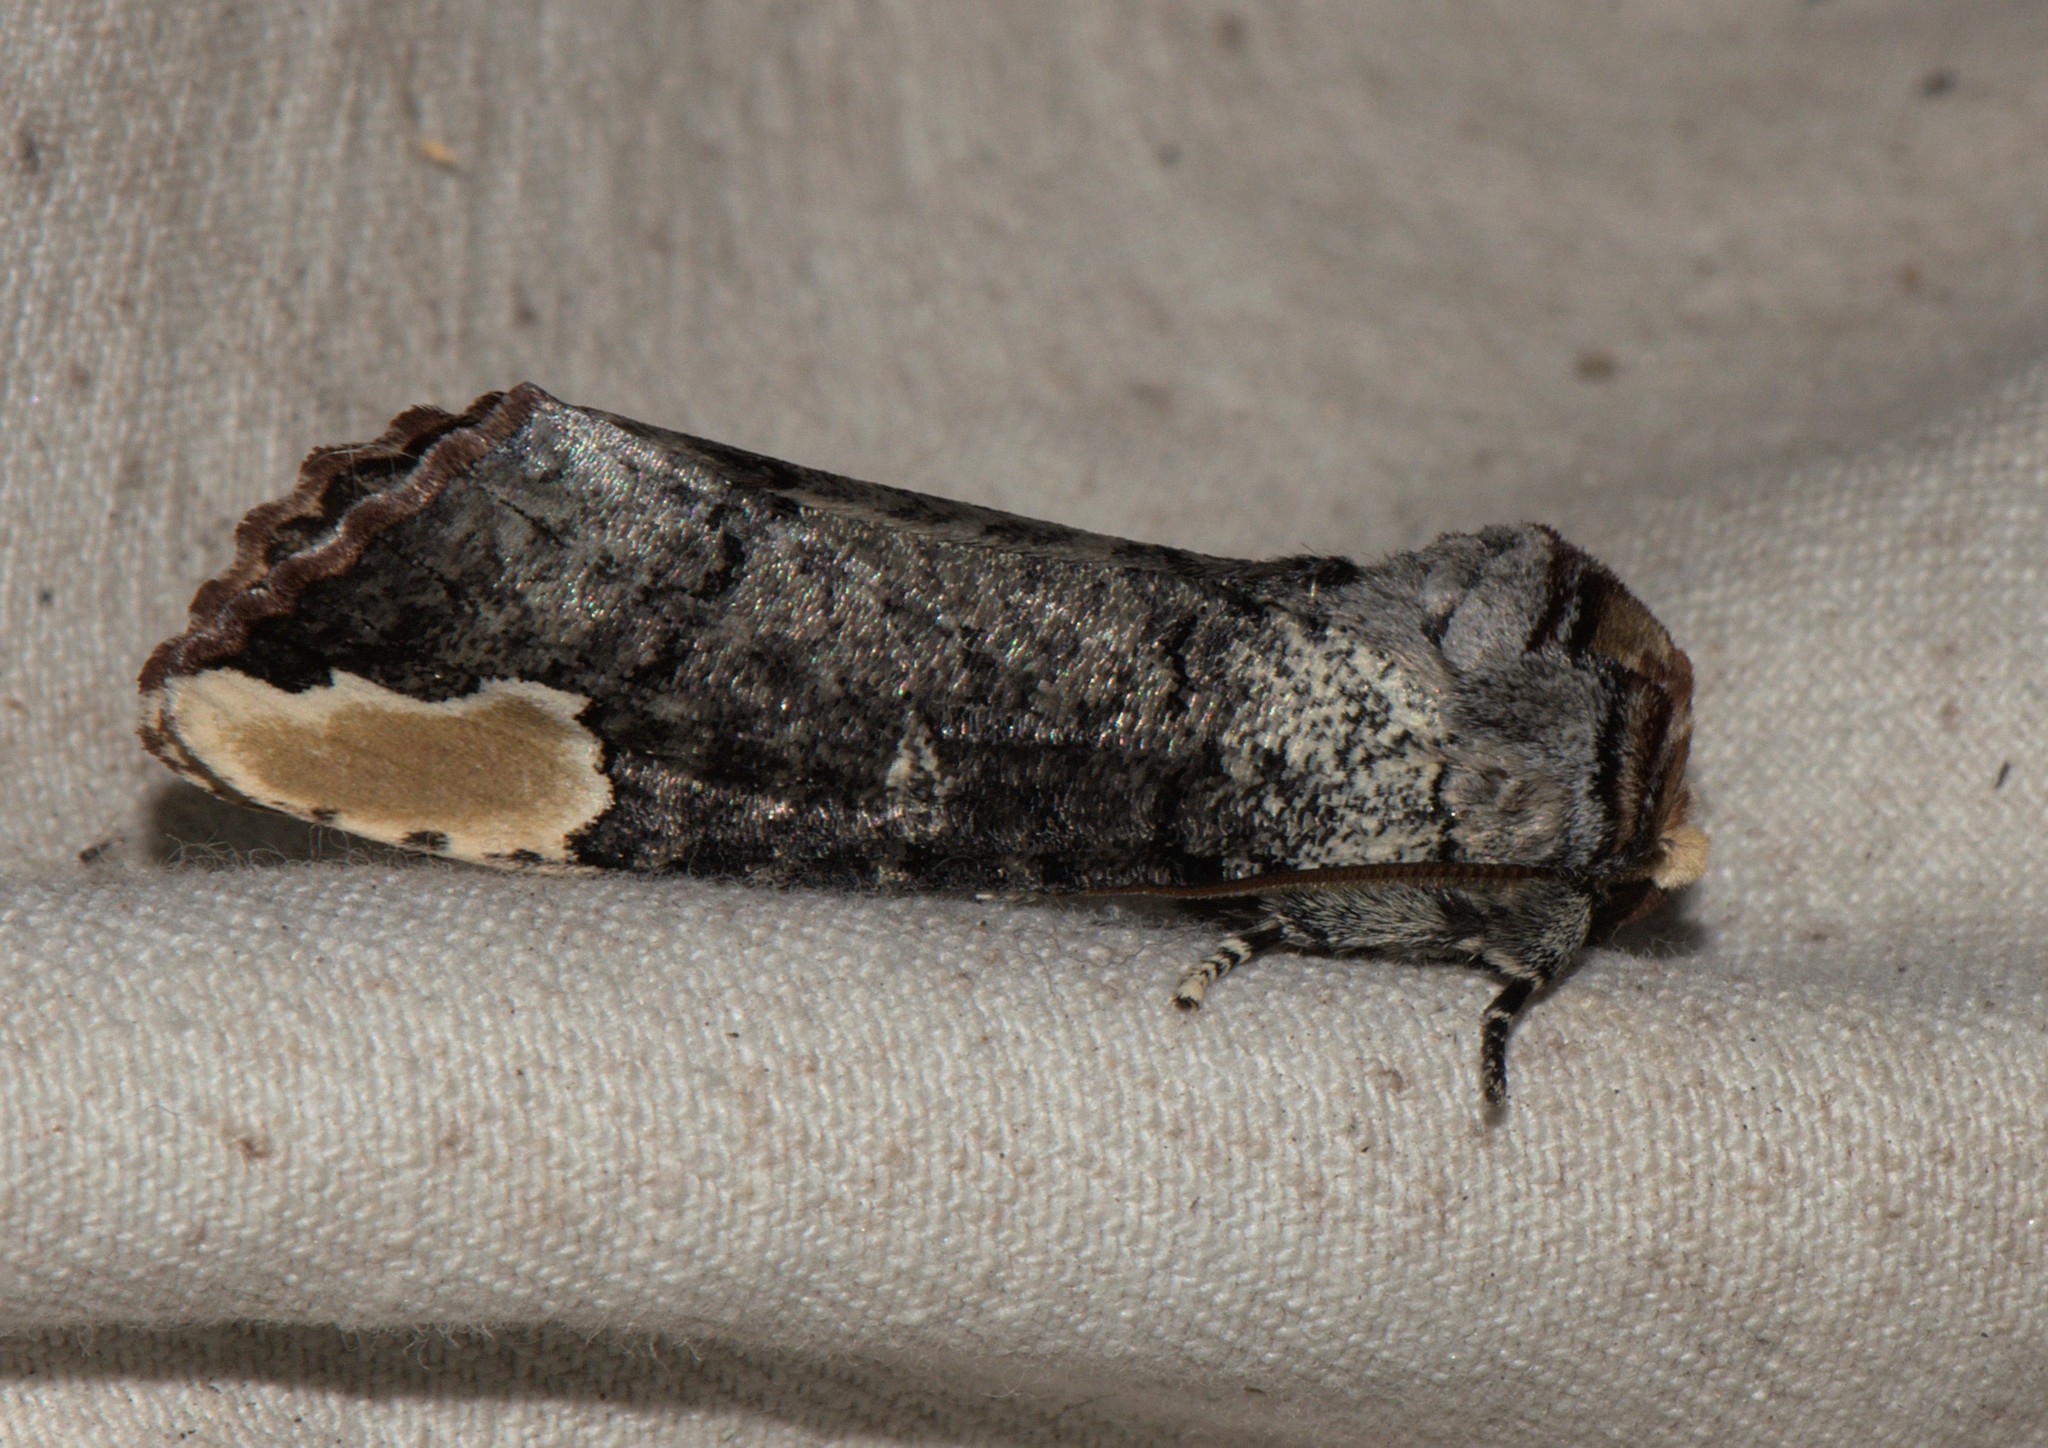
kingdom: Animalia
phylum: Arthropoda
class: Insecta
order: Lepidoptera
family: Notodontidae
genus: Phalera
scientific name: Phalera goniophora
